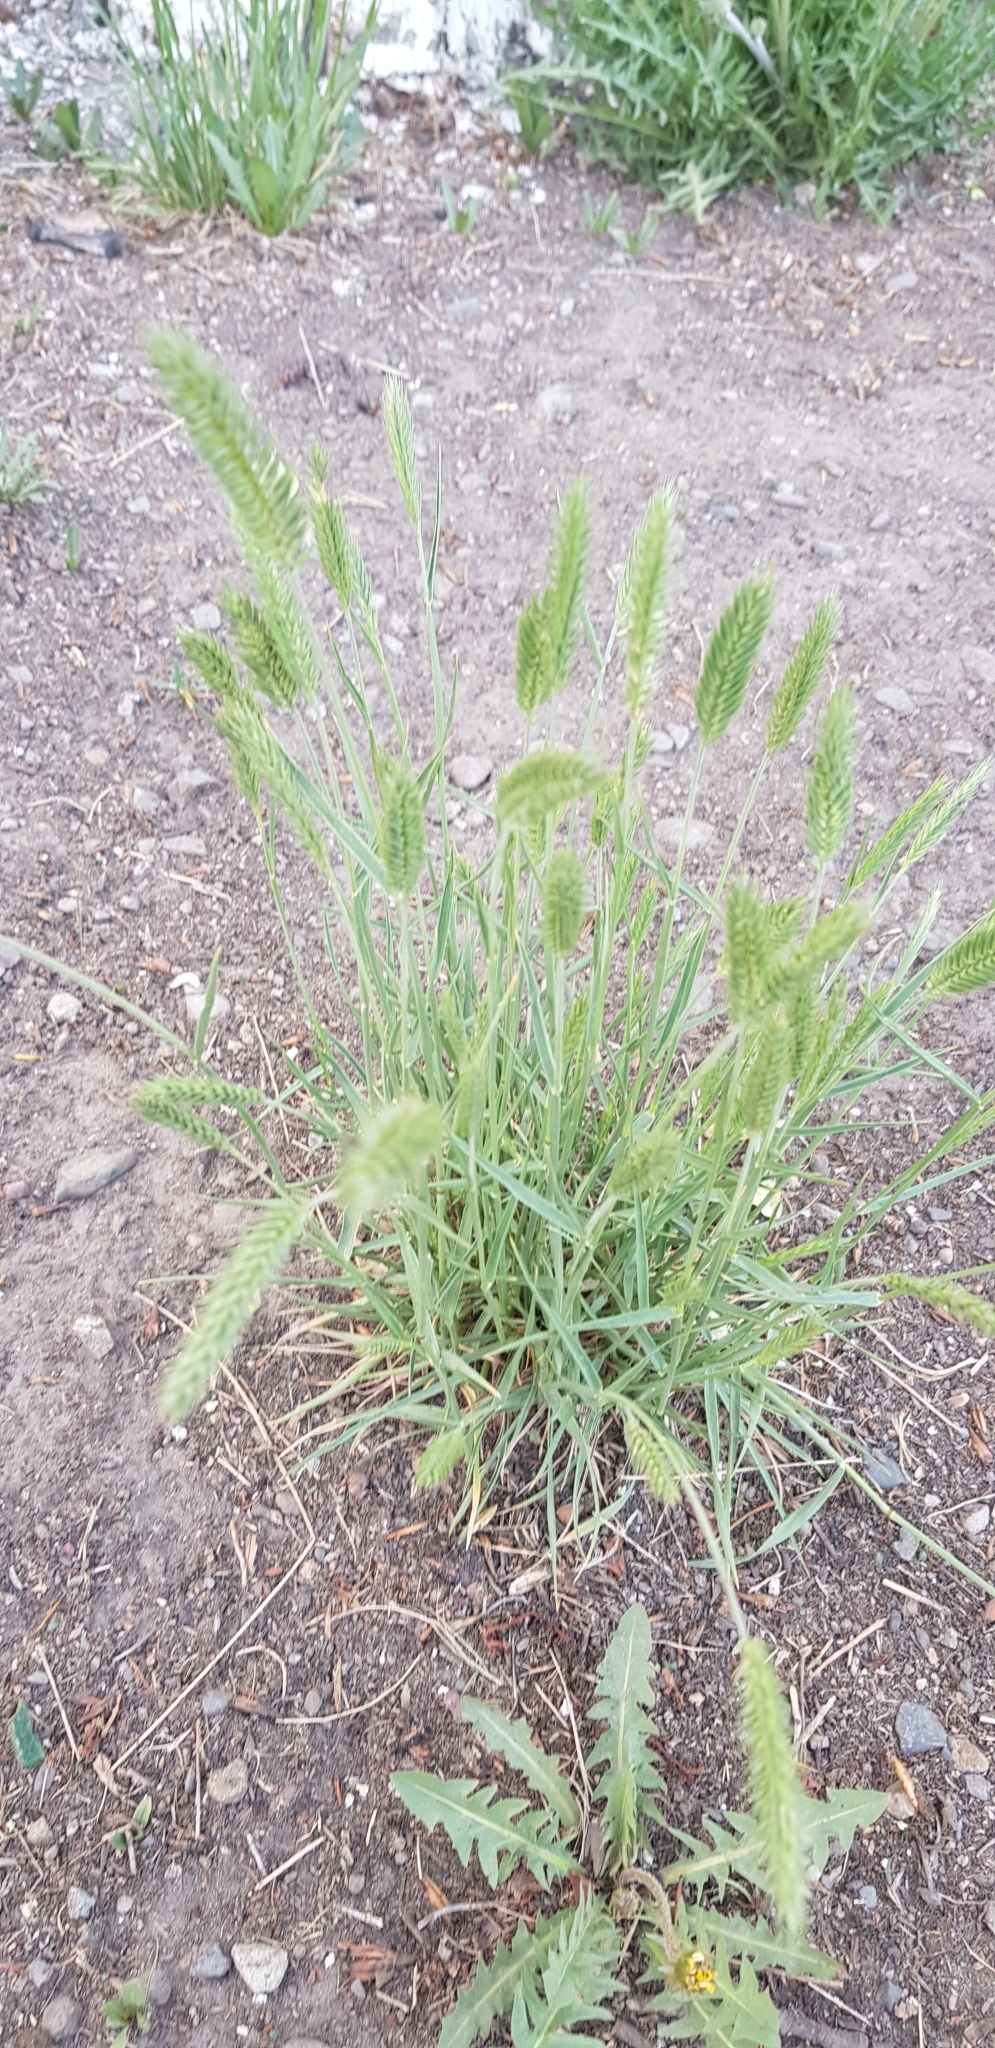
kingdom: Plantae
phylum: Tracheophyta
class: Liliopsida
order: Poales
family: Poaceae
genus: Agropyron
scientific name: Agropyron cristatum
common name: Crested wheatgrass
